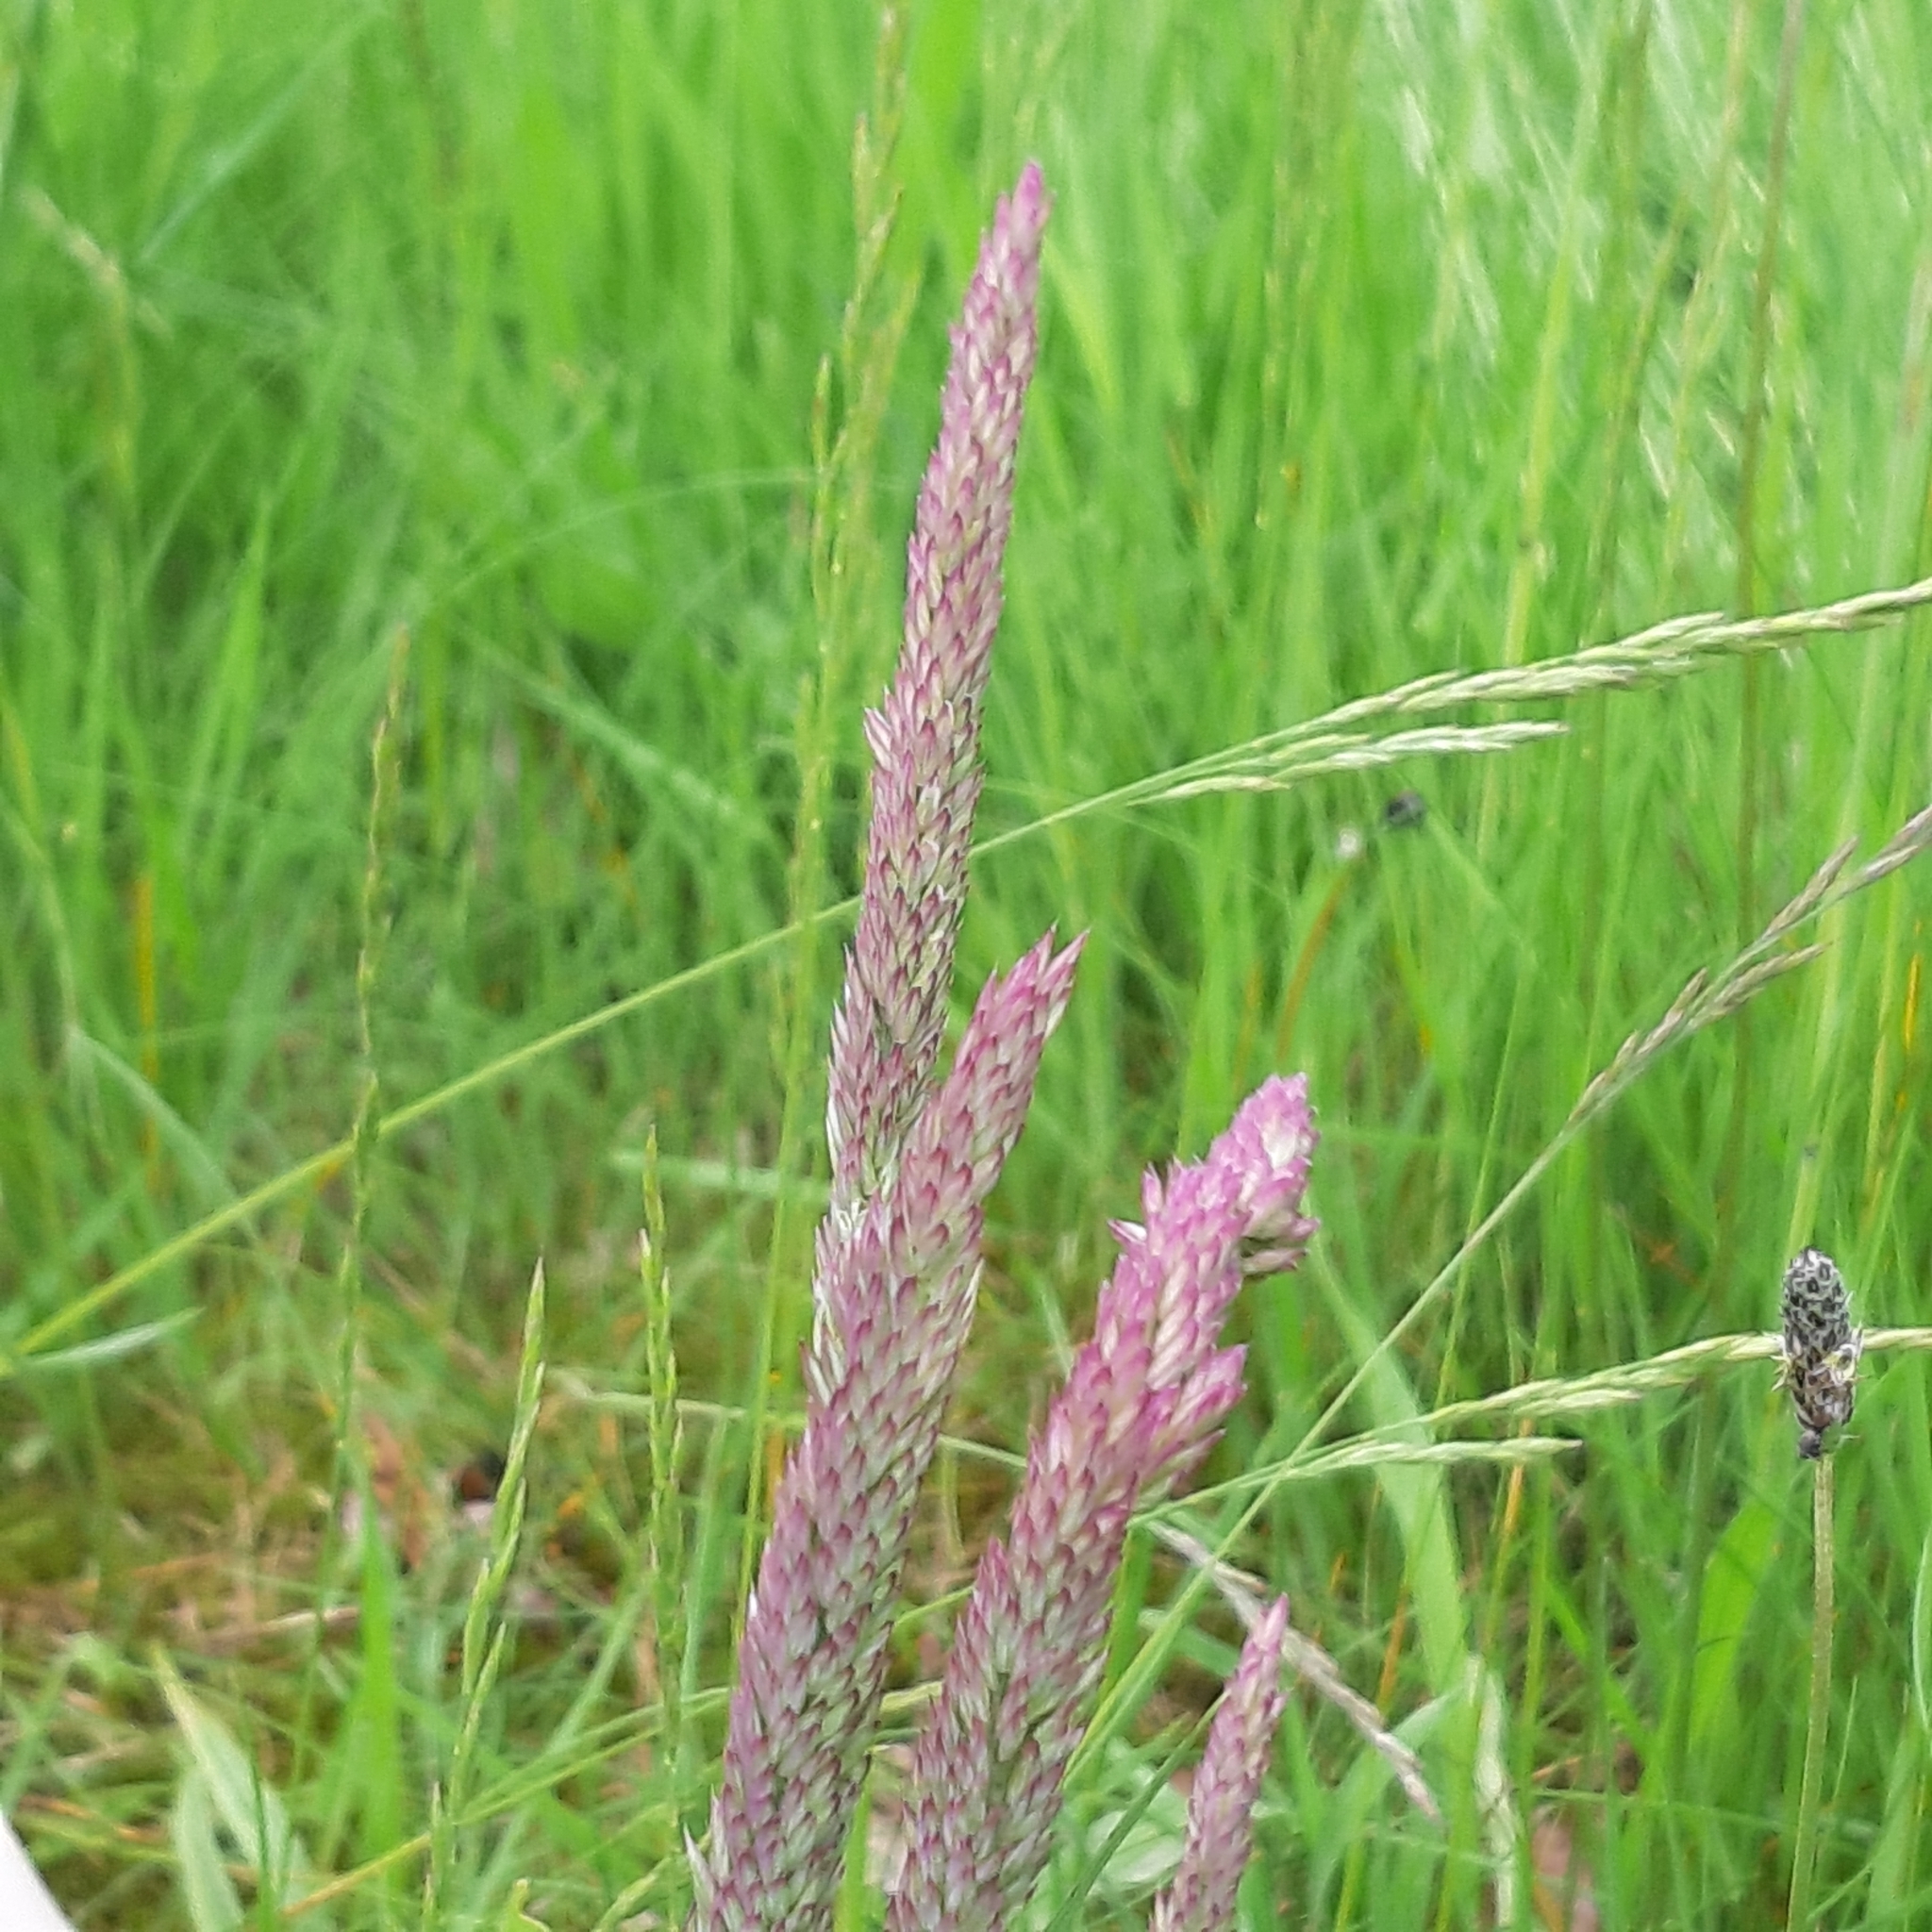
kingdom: Plantae
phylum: Tracheophyta
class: Liliopsida
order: Poales
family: Poaceae
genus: Holcus
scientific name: Holcus lanatus
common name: Yorkshire-fog
